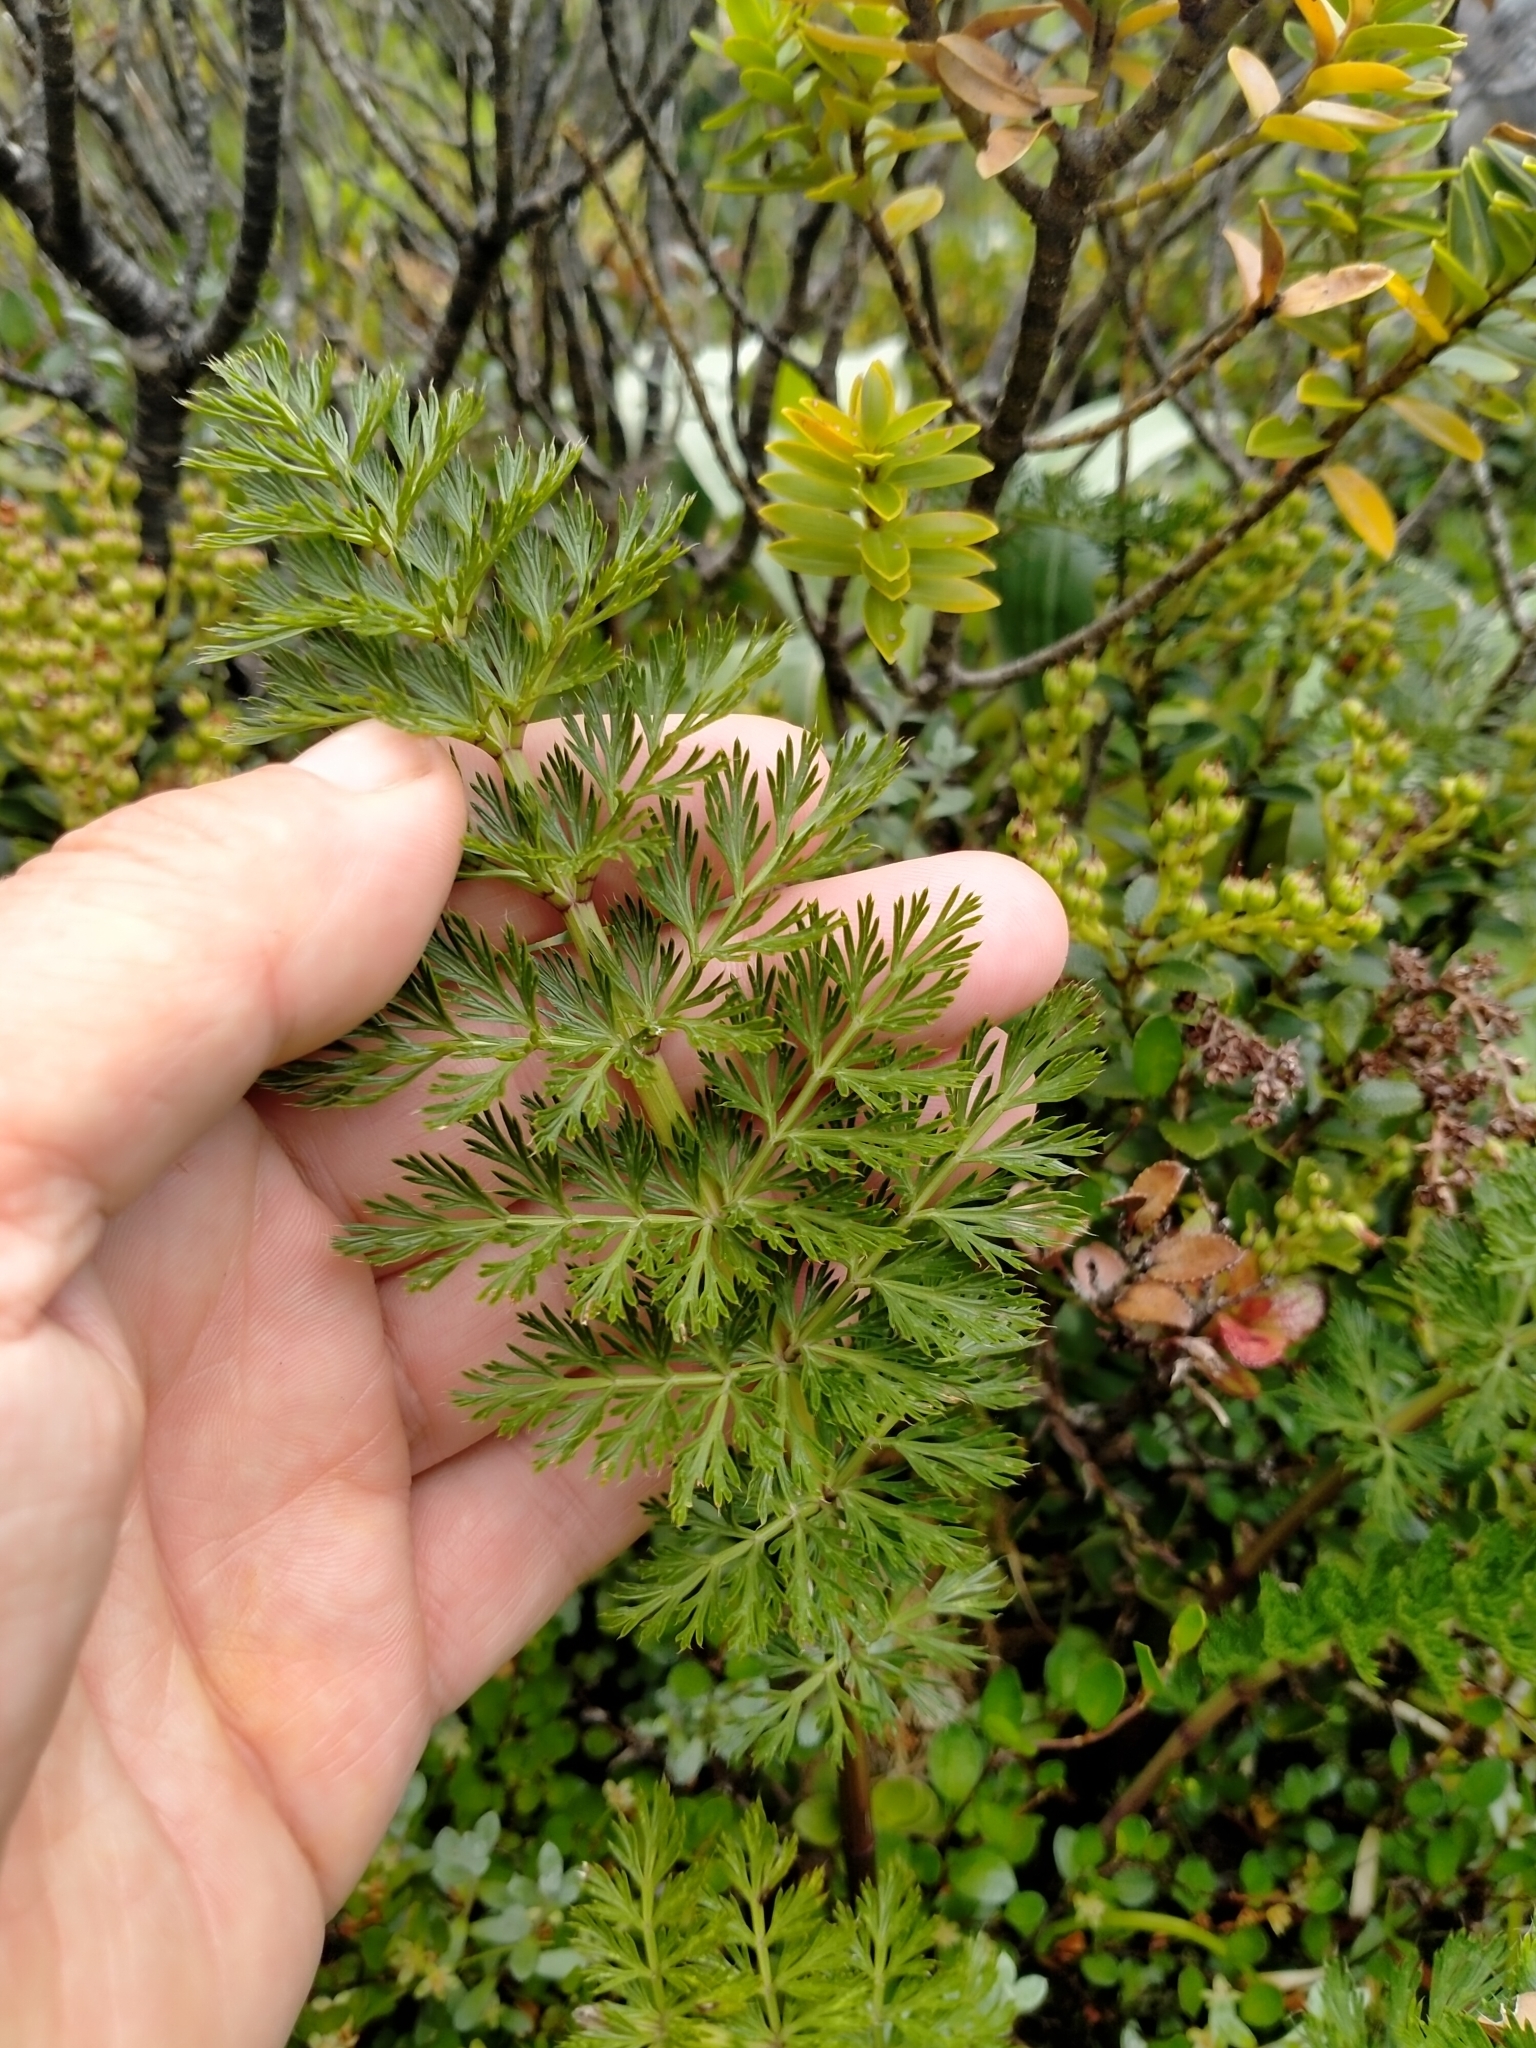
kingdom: Plantae
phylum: Tracheophyta
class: Magnoliopsida
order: Apiales
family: Apiaceae
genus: Anisotome
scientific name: Anisotome haastii
